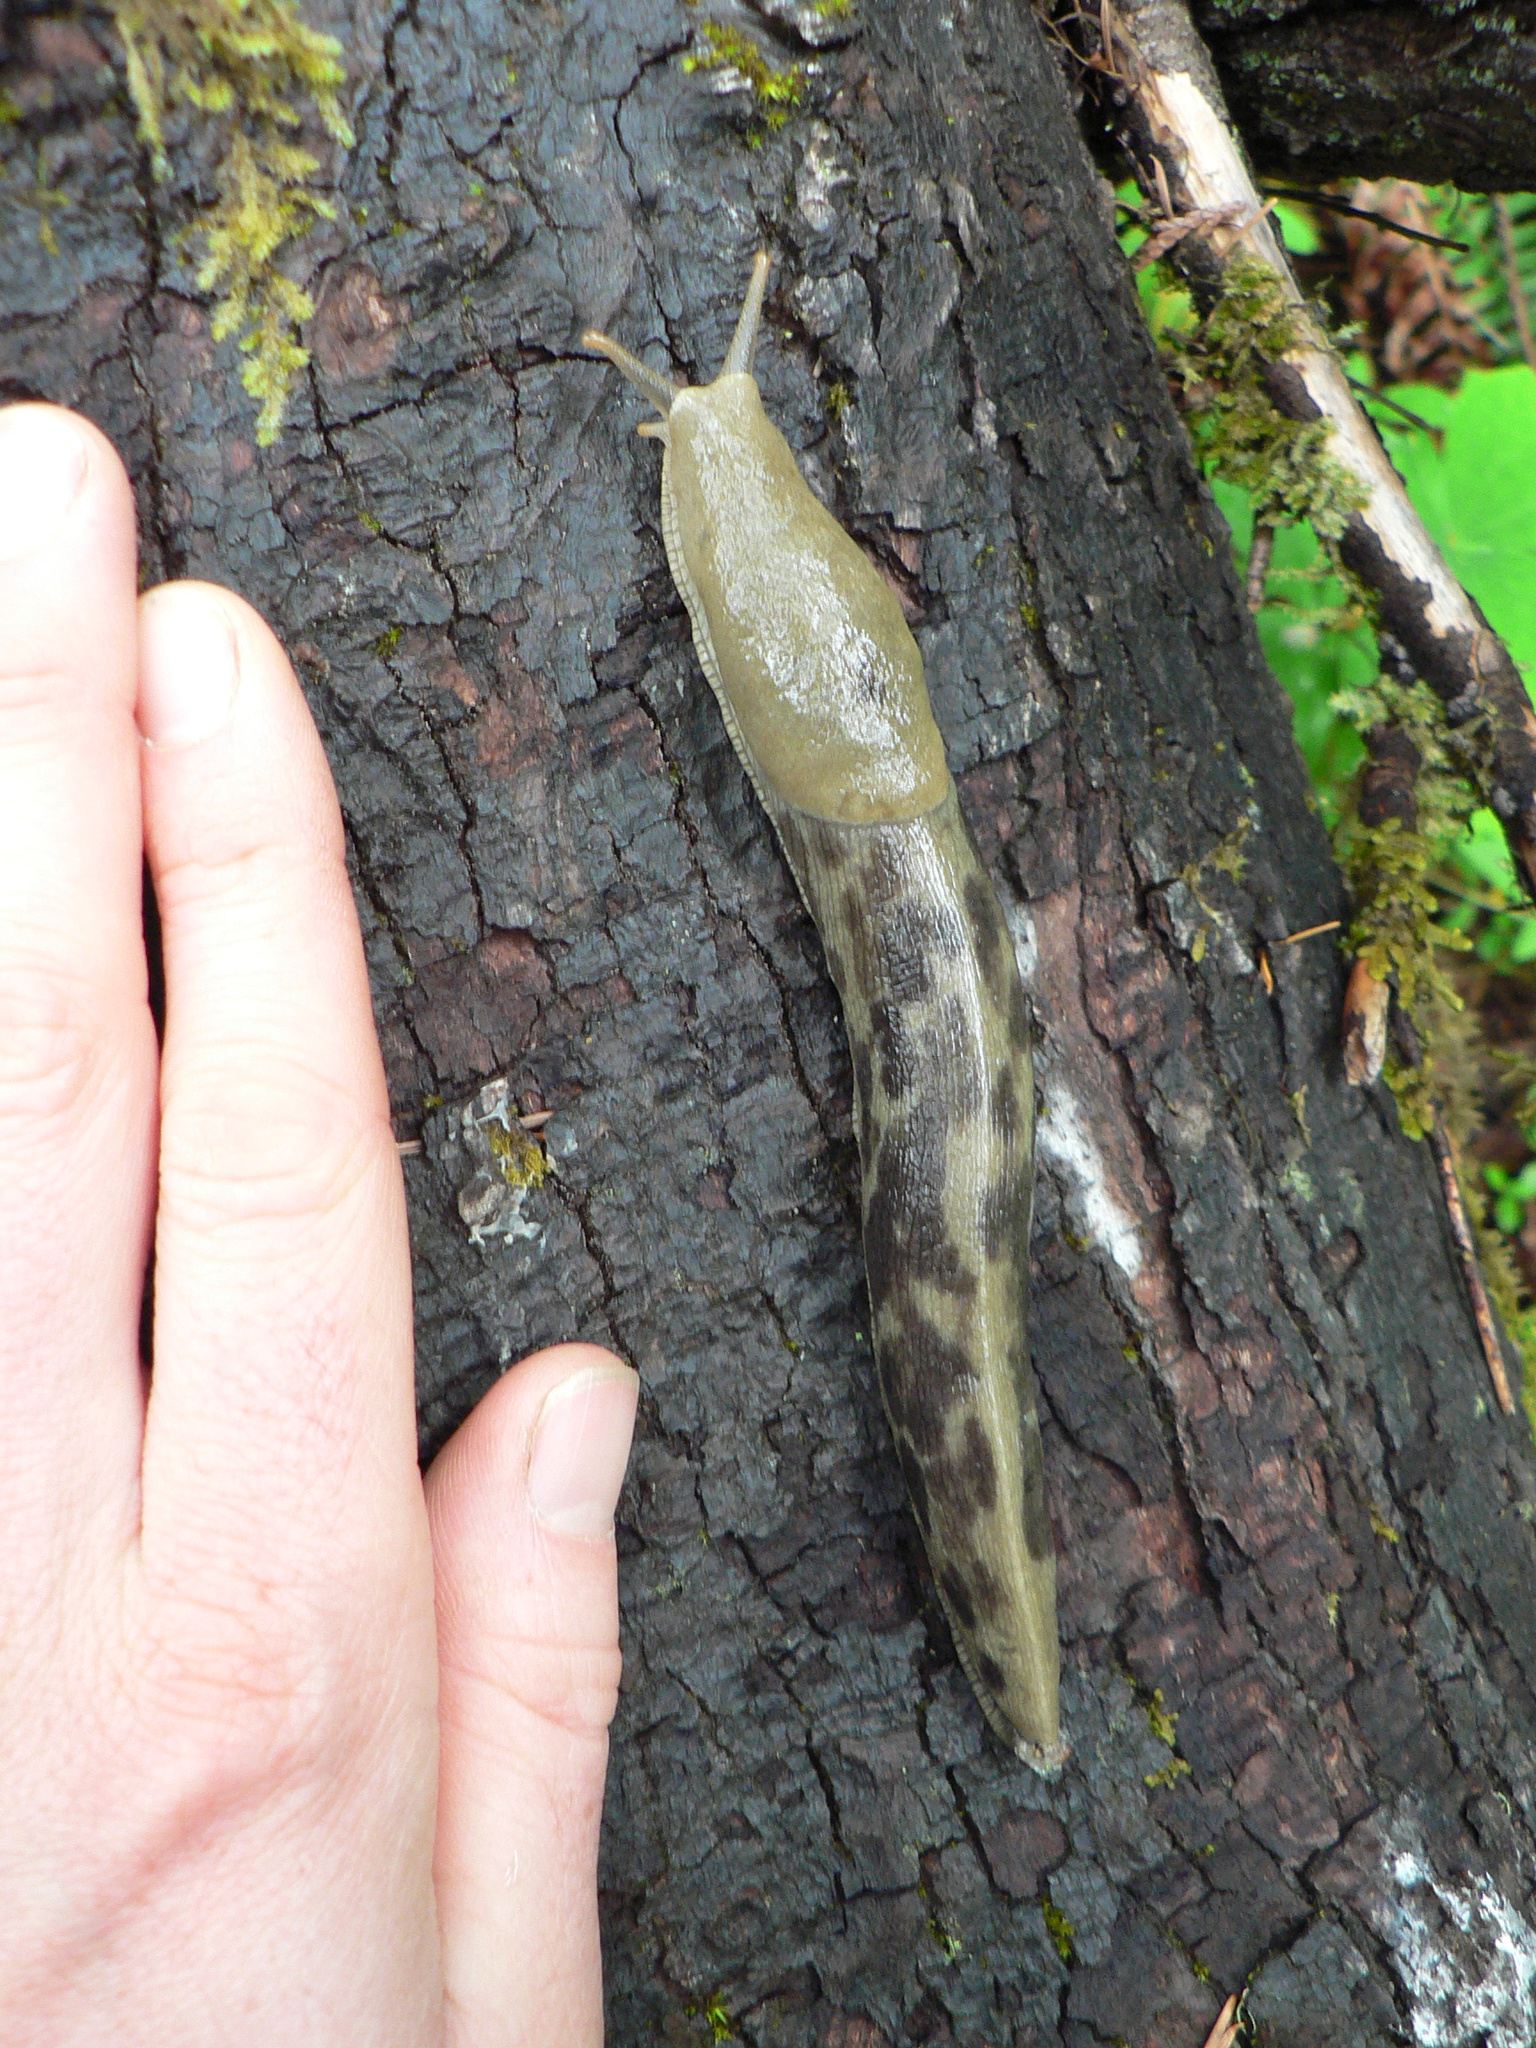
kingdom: Animalia
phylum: Mollusca
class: Gastropoda
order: Stylommatophora
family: Ariolimacidae
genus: Ariolimax
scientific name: Ariolimax columbianus
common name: Pacific banana slug
